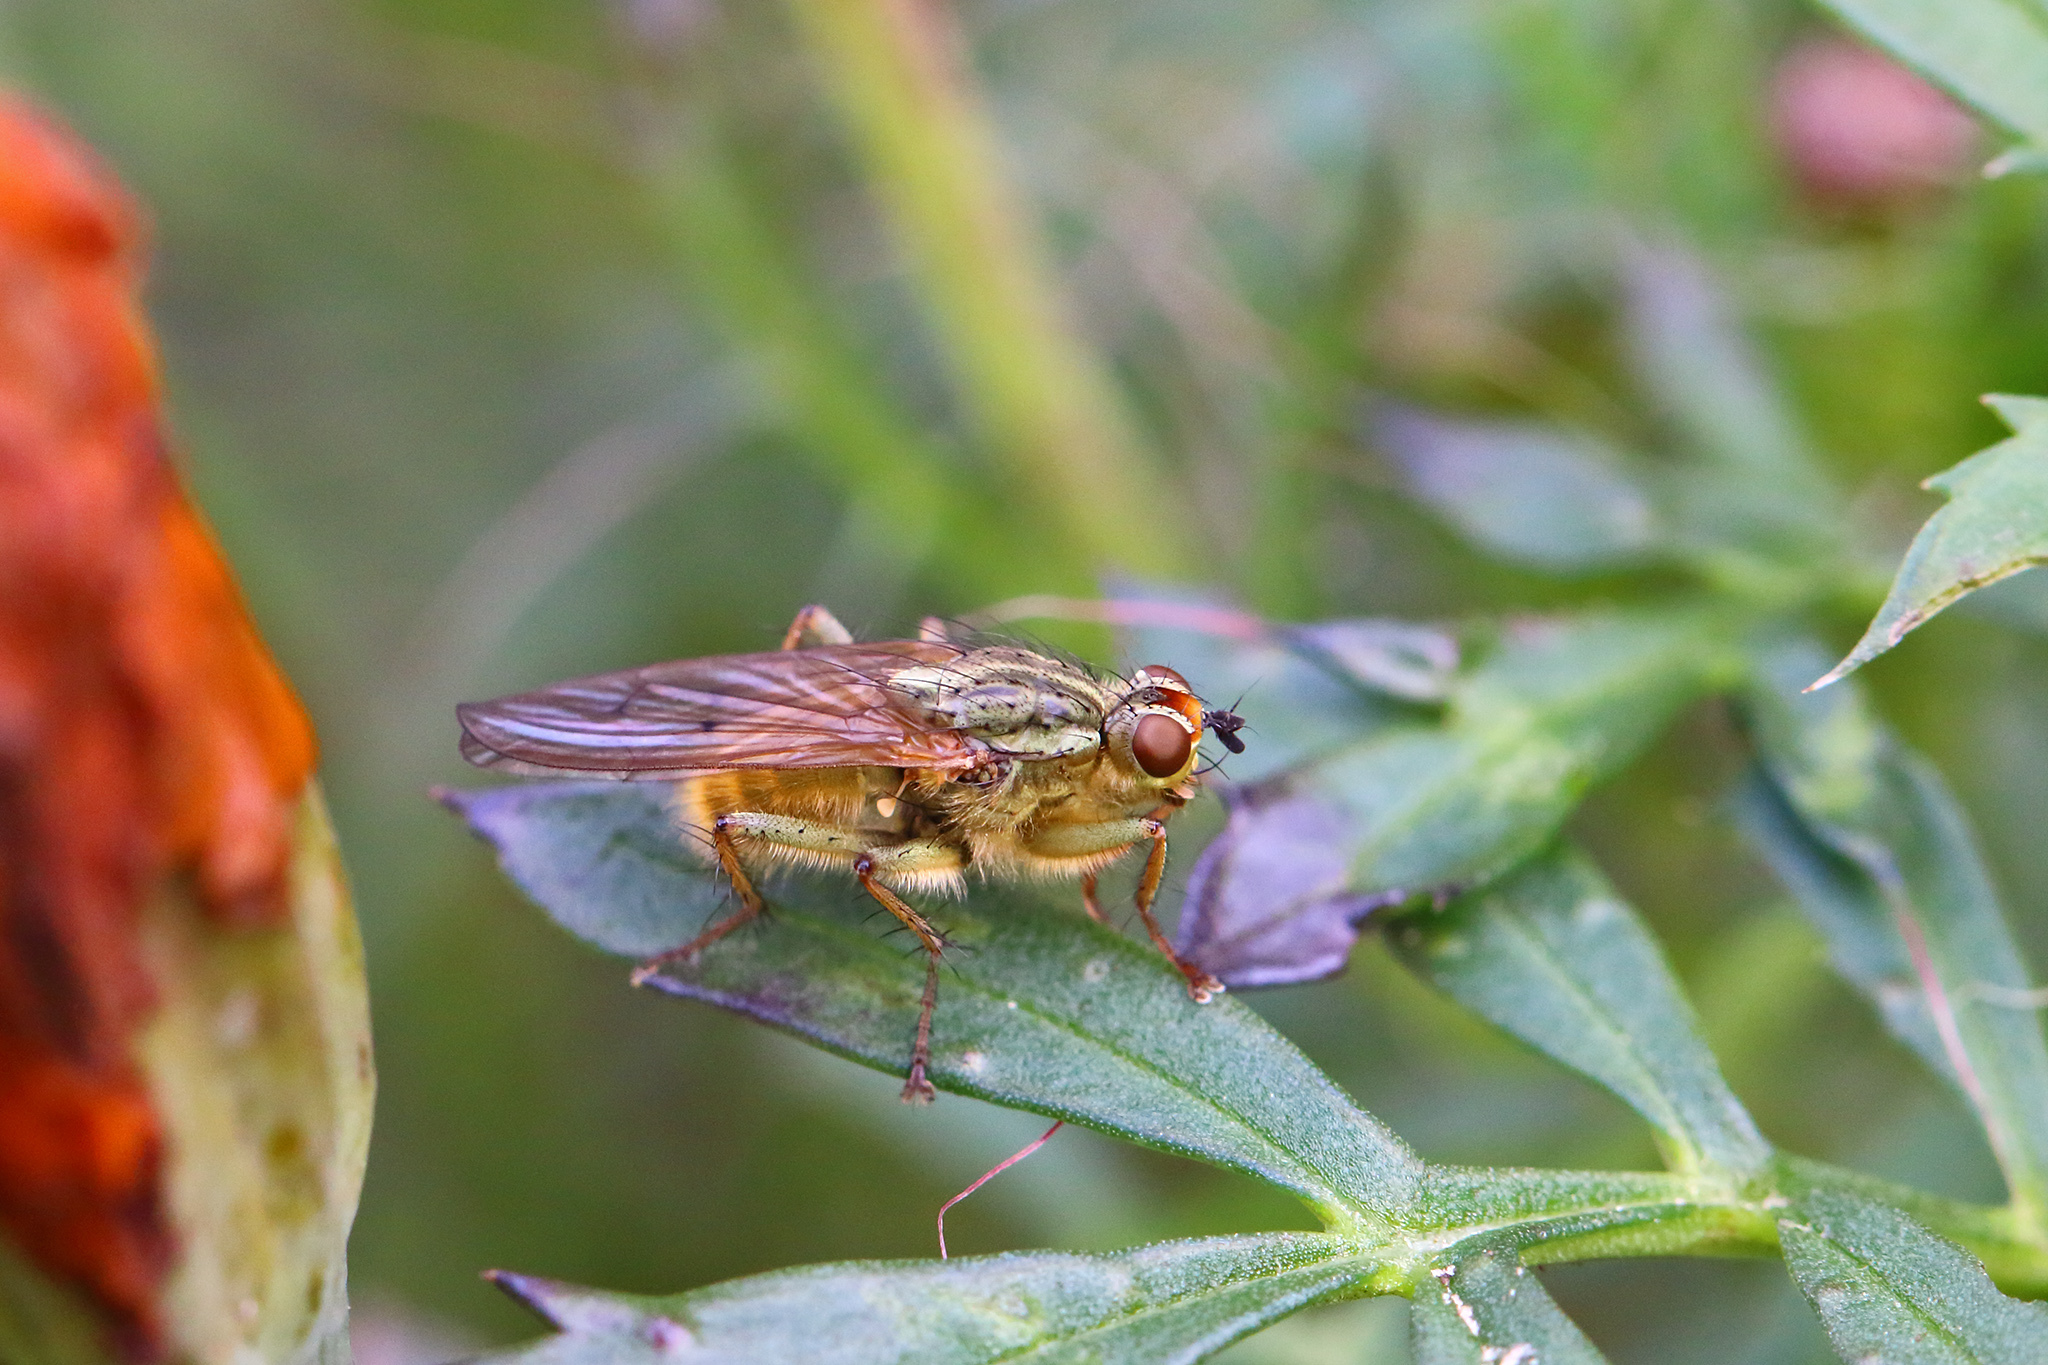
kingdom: Animalia
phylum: Arthropoda
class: Insecta
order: Diptera
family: Scathophagidae
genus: Scathophaga
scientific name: Scathophaga stercoraria
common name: Yellow dung fly
